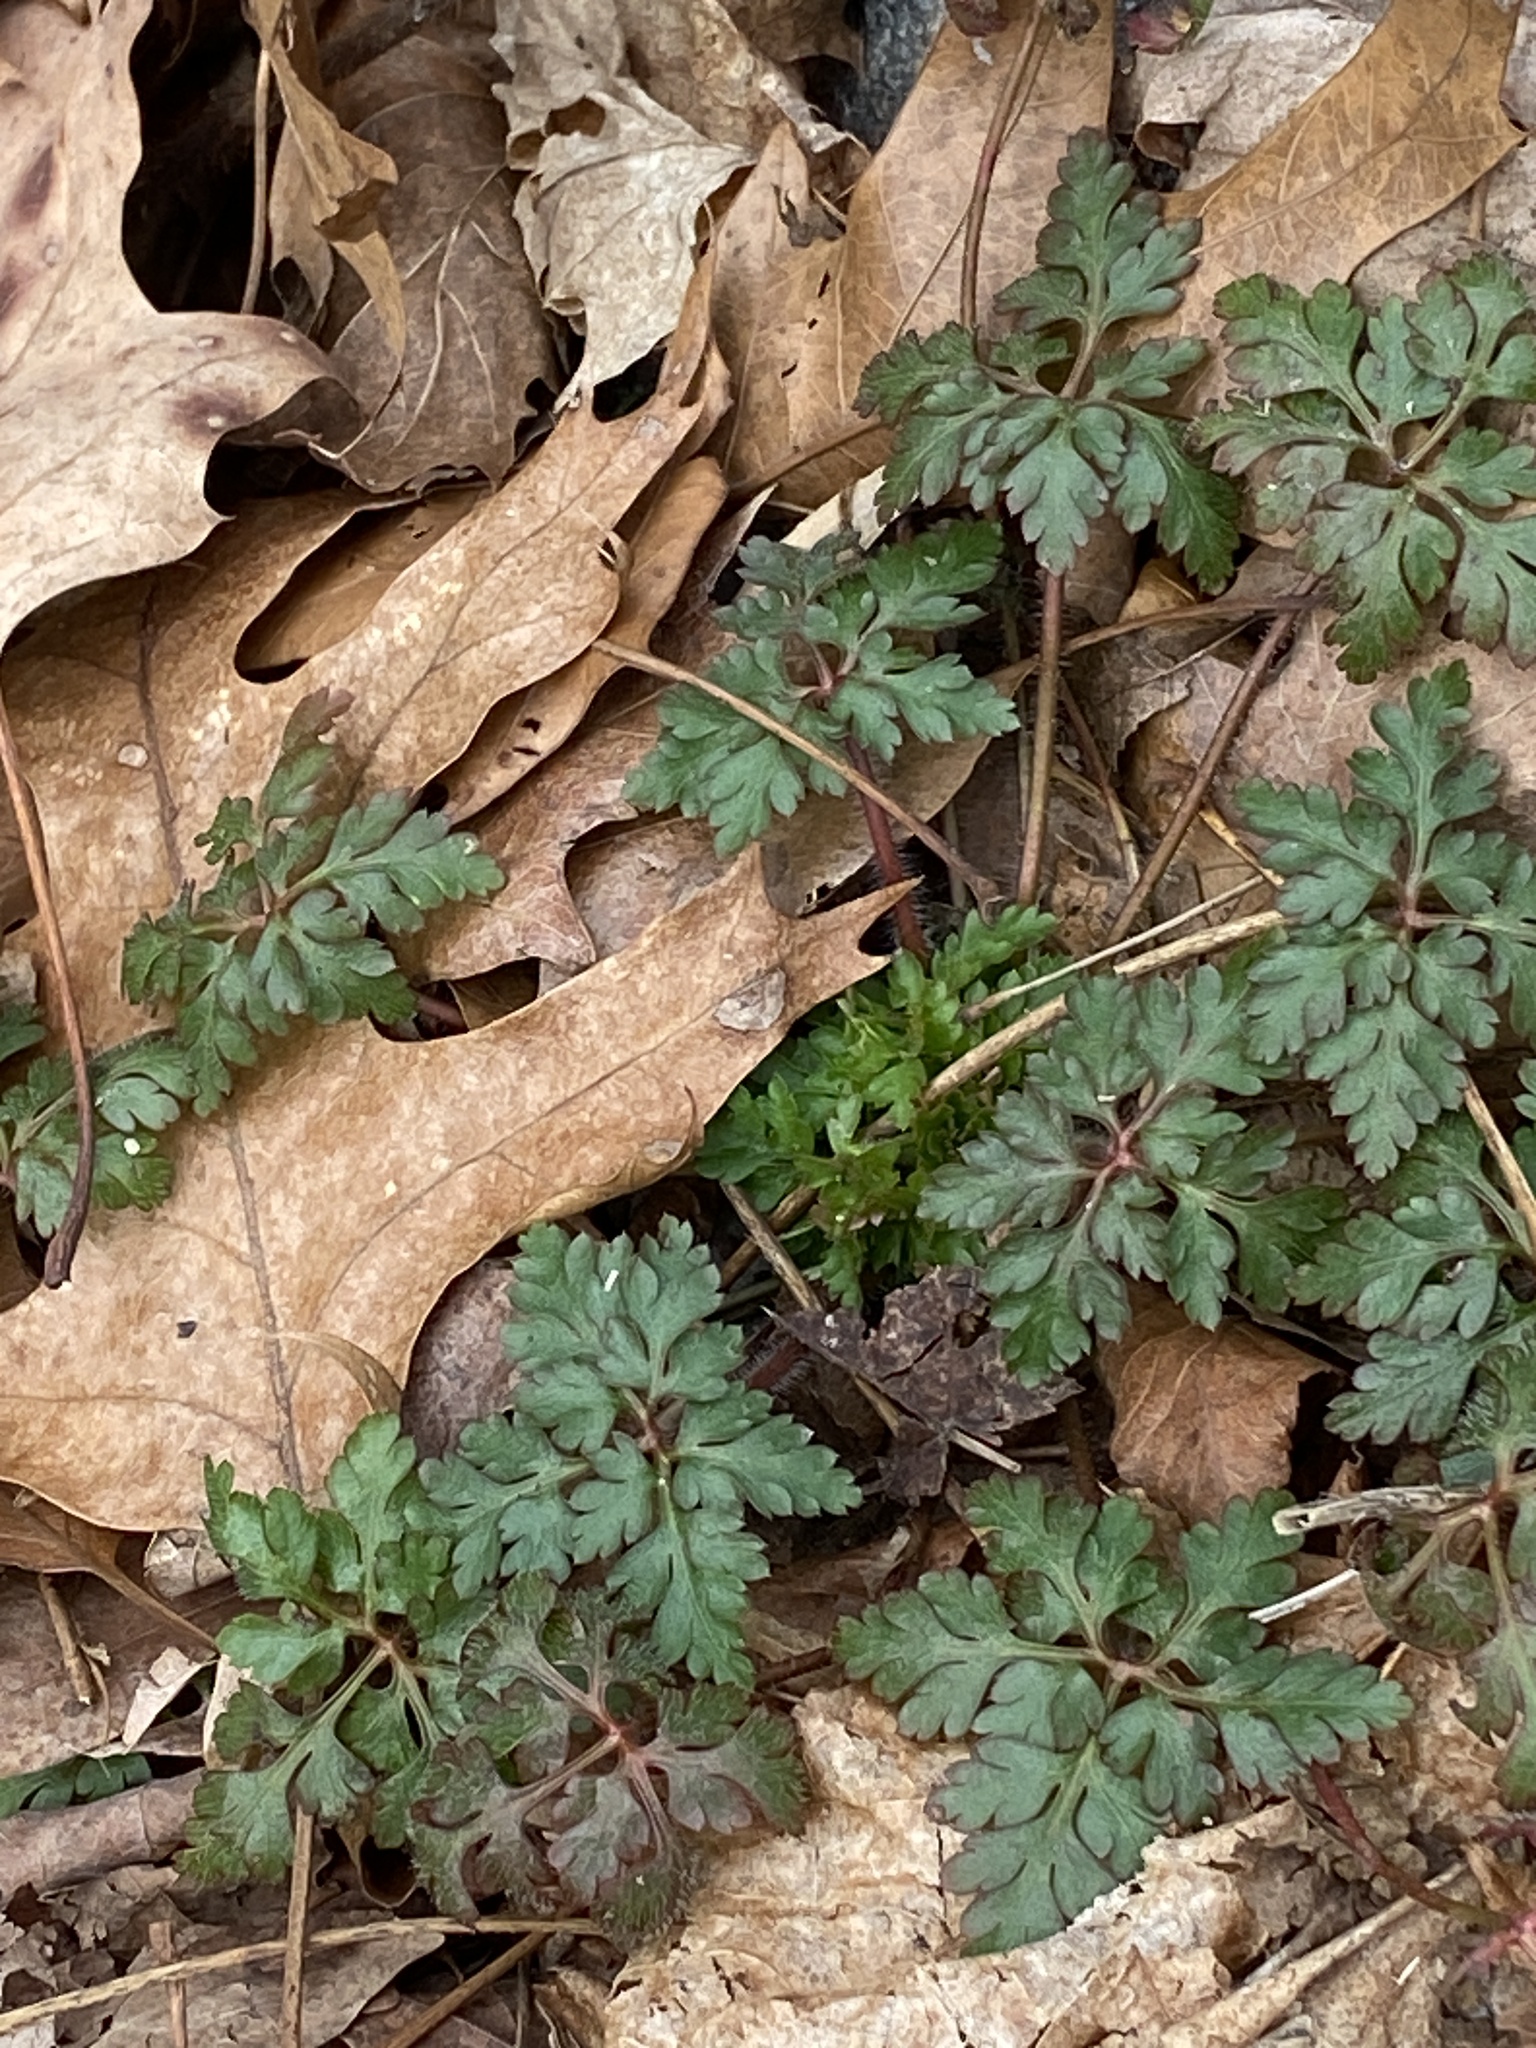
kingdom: Plantae
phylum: Tracheophyta
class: Magnoliopsida
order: Geraniales
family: Geraniaceae
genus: Geranium
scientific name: Geranium robertianum
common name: Herb-robert
